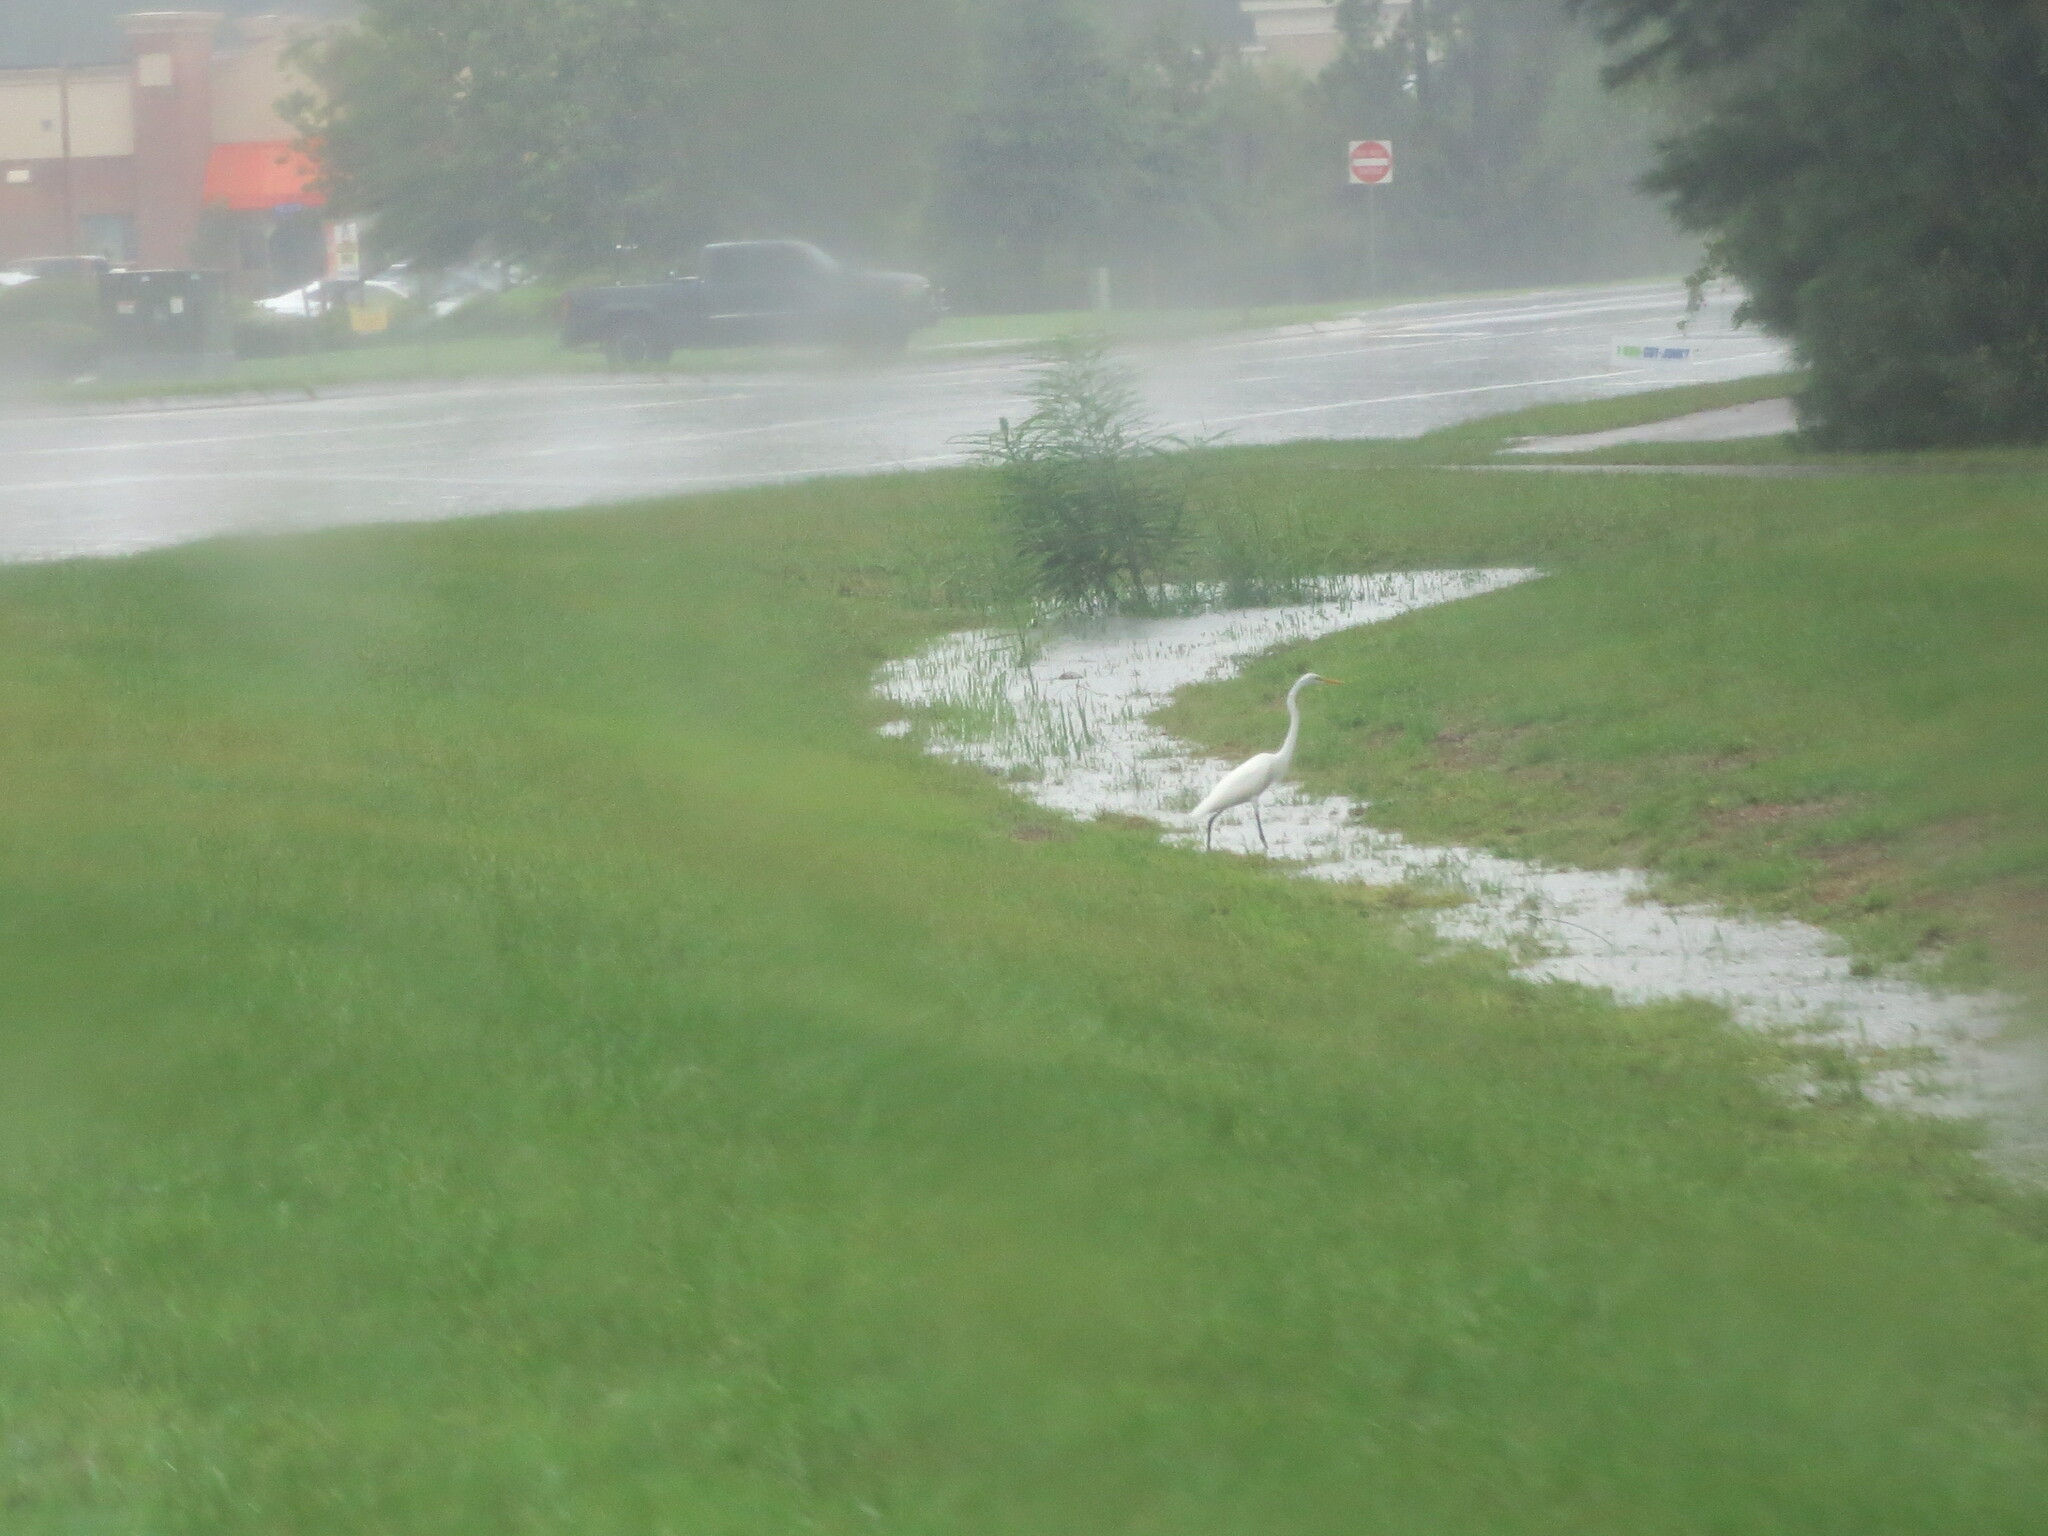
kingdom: Animalia
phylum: Chordata
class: Aves
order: Pelecaniformes
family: Ardeidae
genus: Ardea
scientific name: Ardea alba
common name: Great egret
